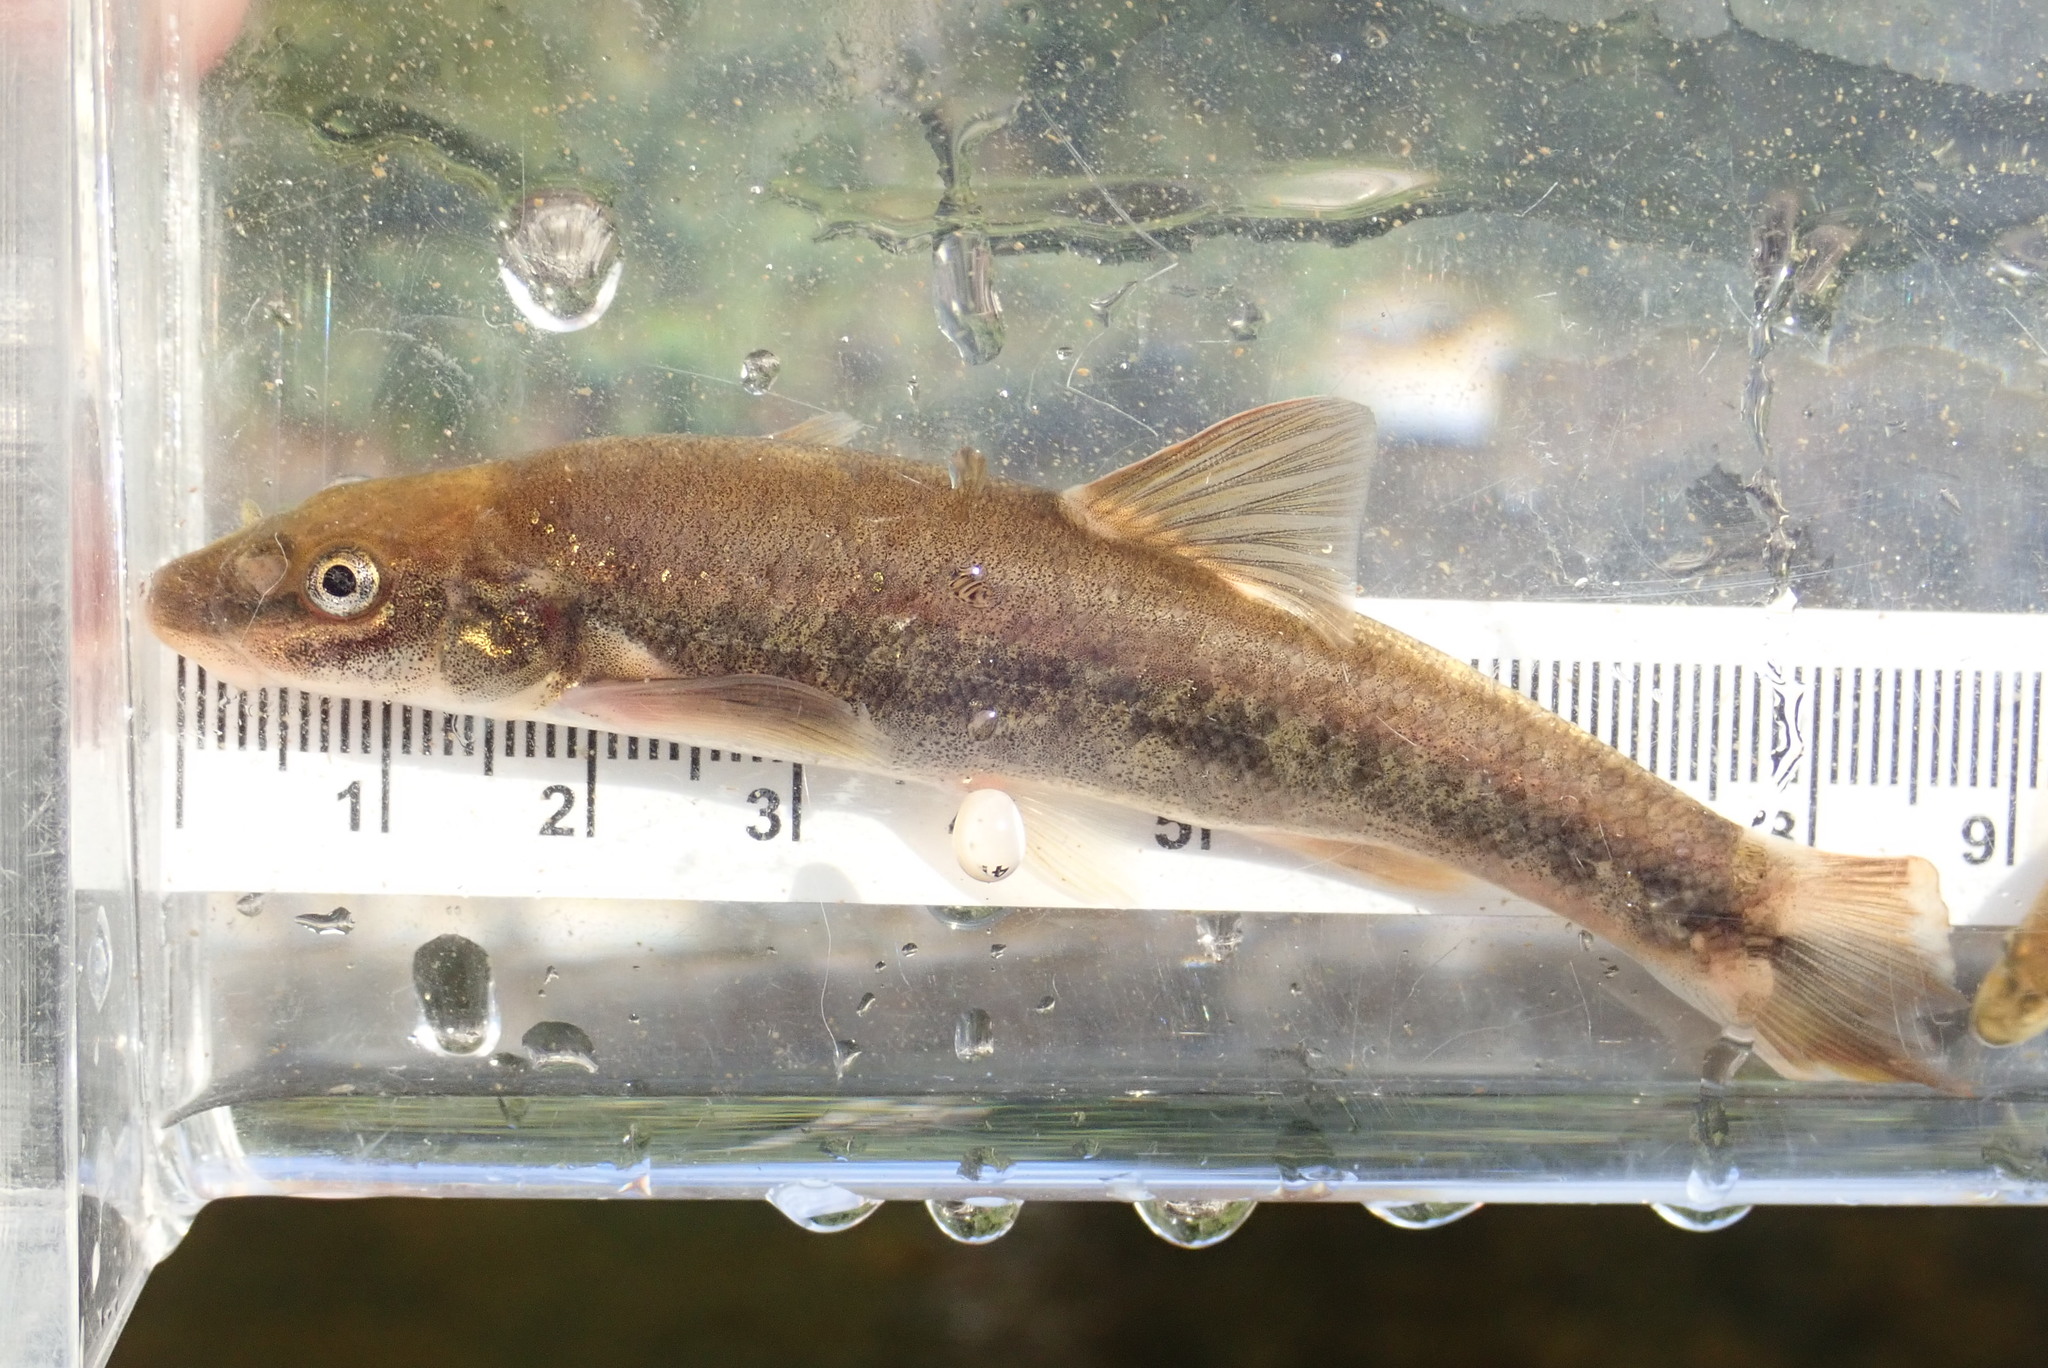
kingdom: Animalia
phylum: Chordata
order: Cypriniformes
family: Cyprinidae
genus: Rhinichthys
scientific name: Rhinichthys cataractae
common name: Longnose dace
